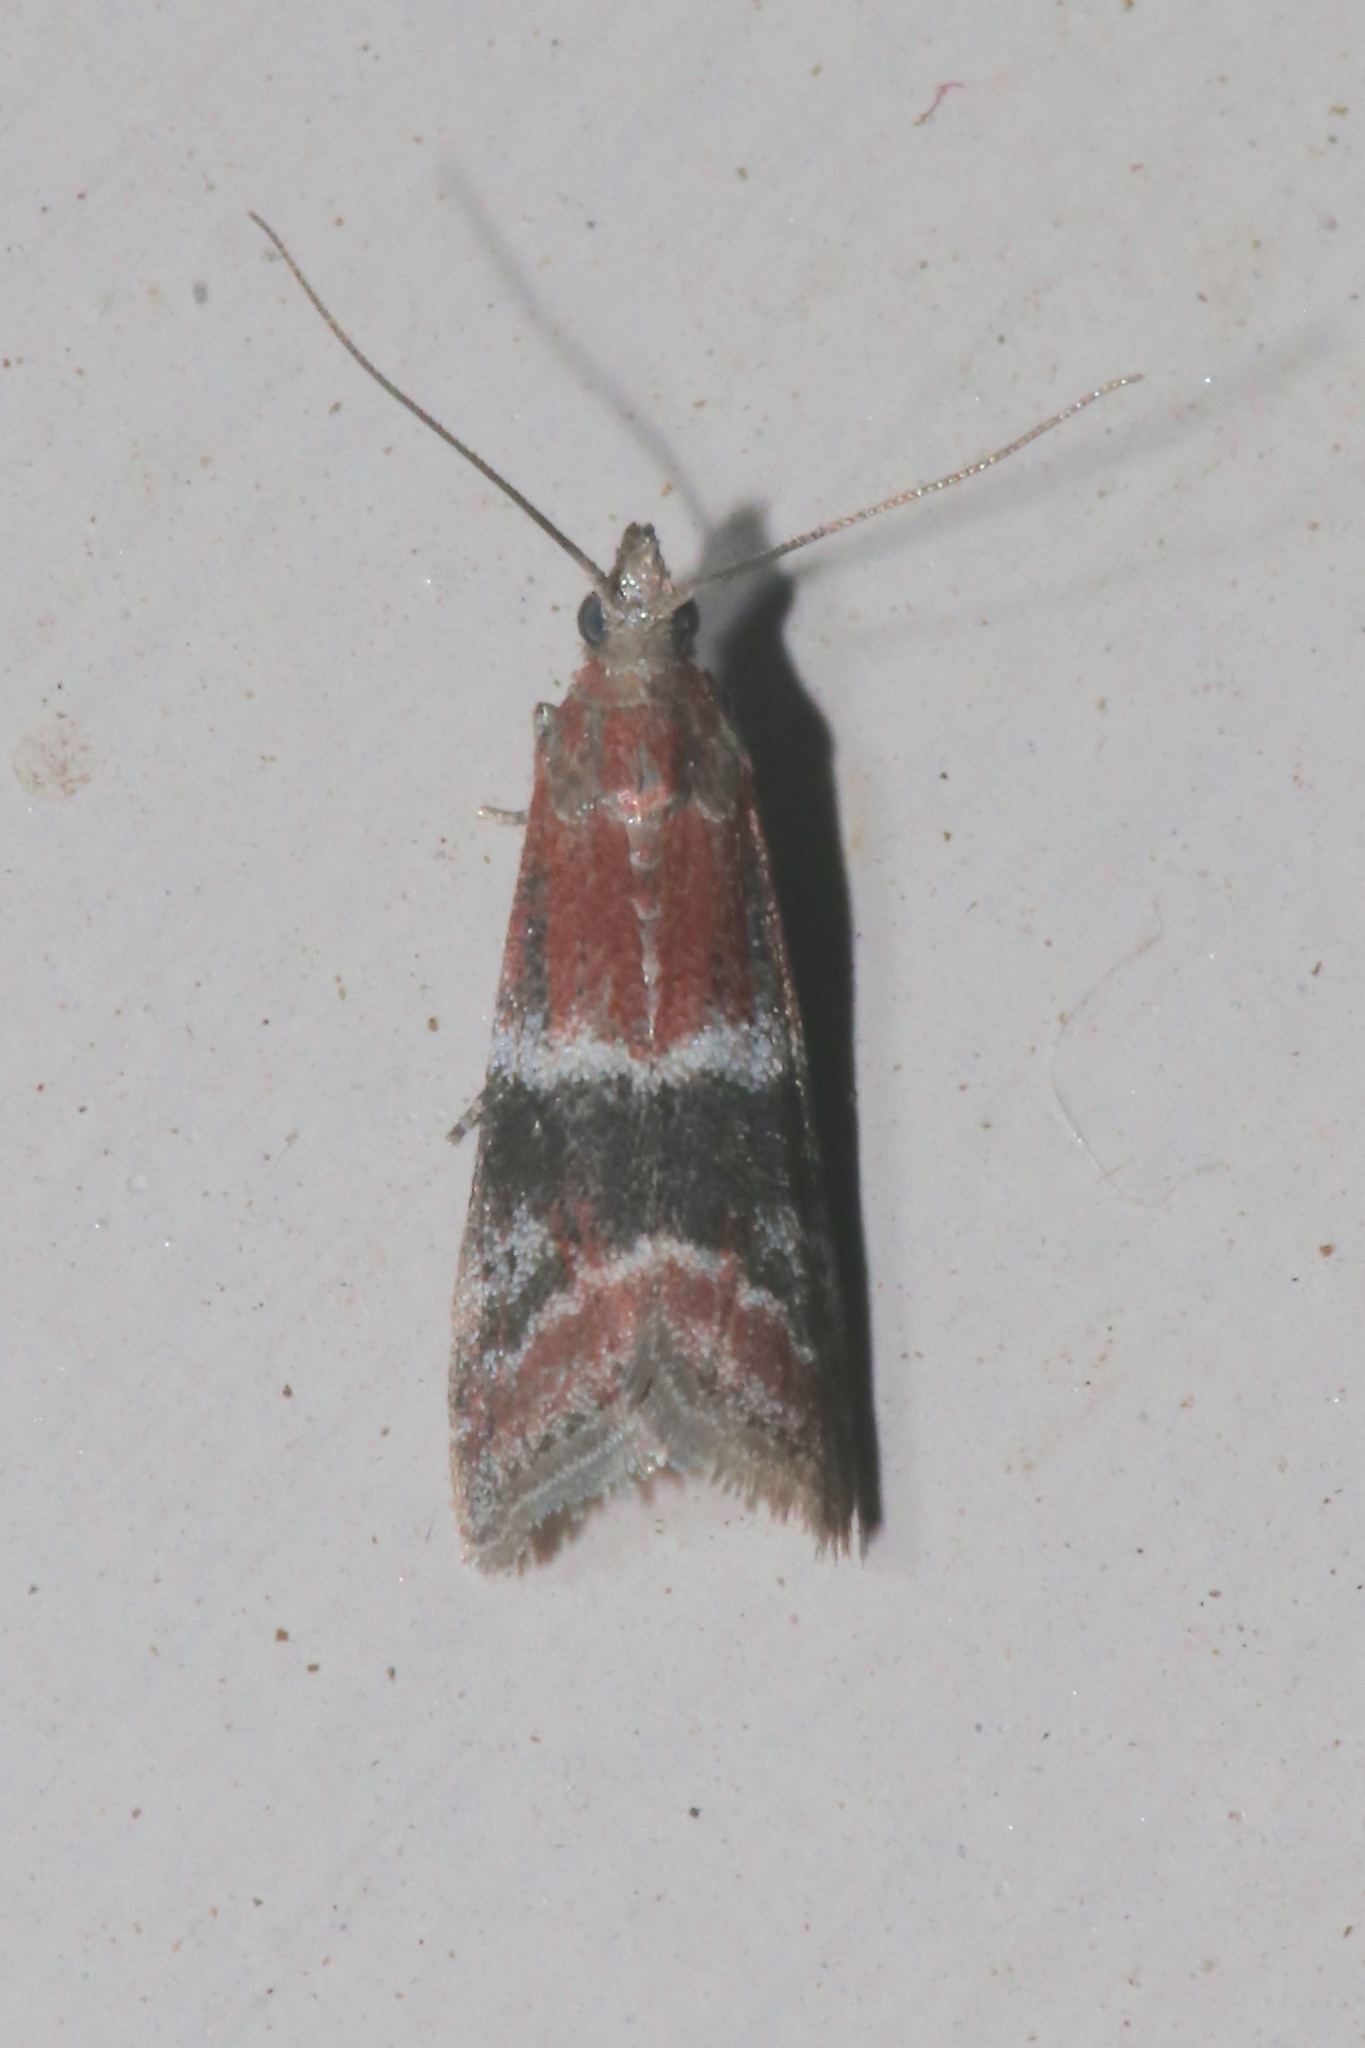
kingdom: Animalia
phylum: Arthropoda
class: Insecta
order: Lepidoptera
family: Pyralidae
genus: Moodna
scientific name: Moodna ostrinella
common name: Darker moodna moth
